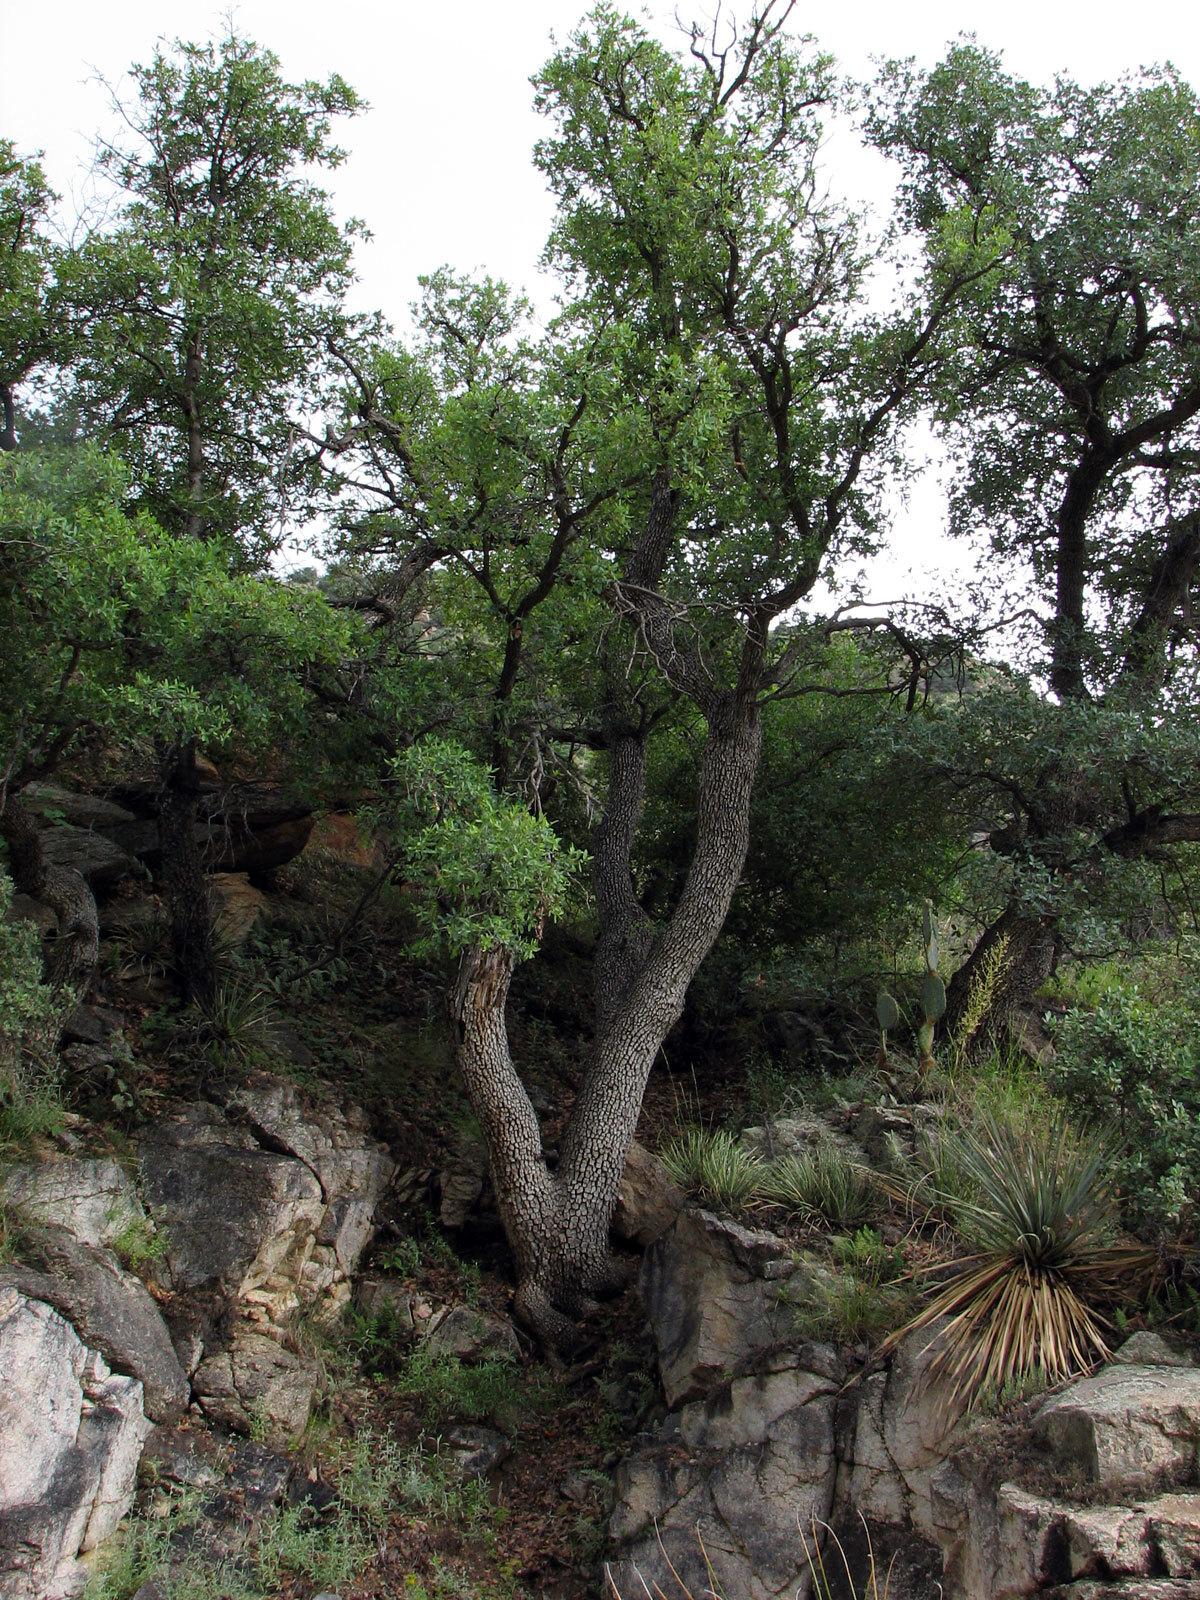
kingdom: Plantae
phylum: Tracheophyta
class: Magnoliopsida
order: Fagales
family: Fagaceae
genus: Quercus
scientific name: Quercus oblongifolia
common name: Mexican blue oak
